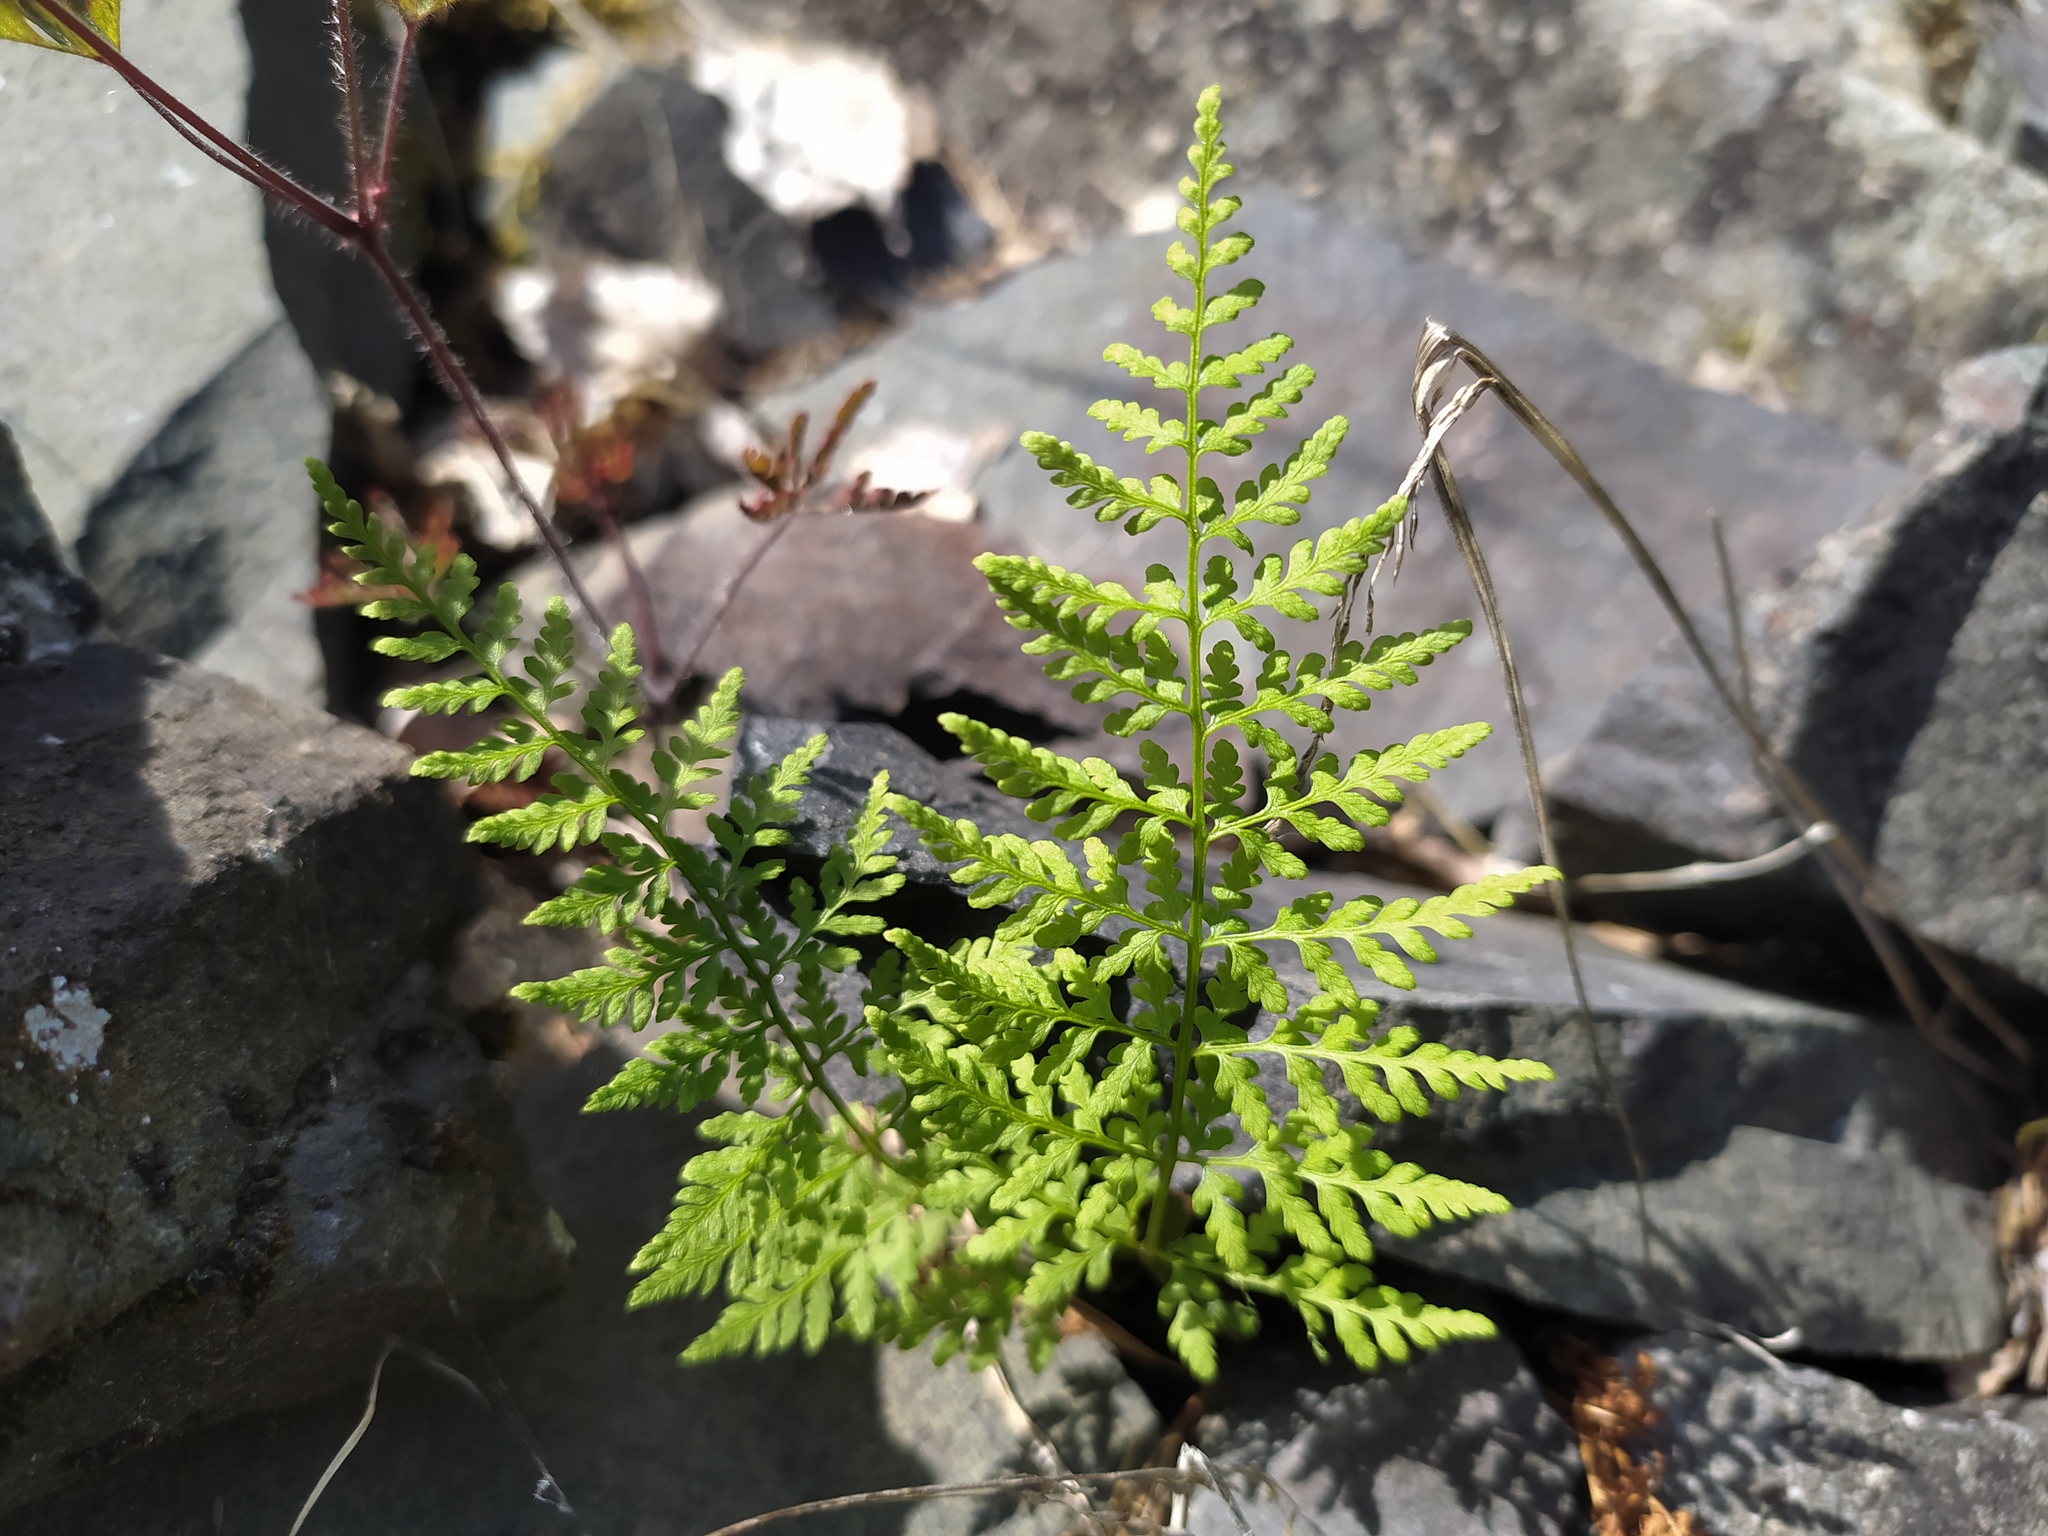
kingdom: Plantae
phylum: Tracheophyta
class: Polypodiopsida
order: Polypodiales
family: Cystopteridaceae
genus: Cystopteris
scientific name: Cystopteris fragilis
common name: Brittle bladder fern
